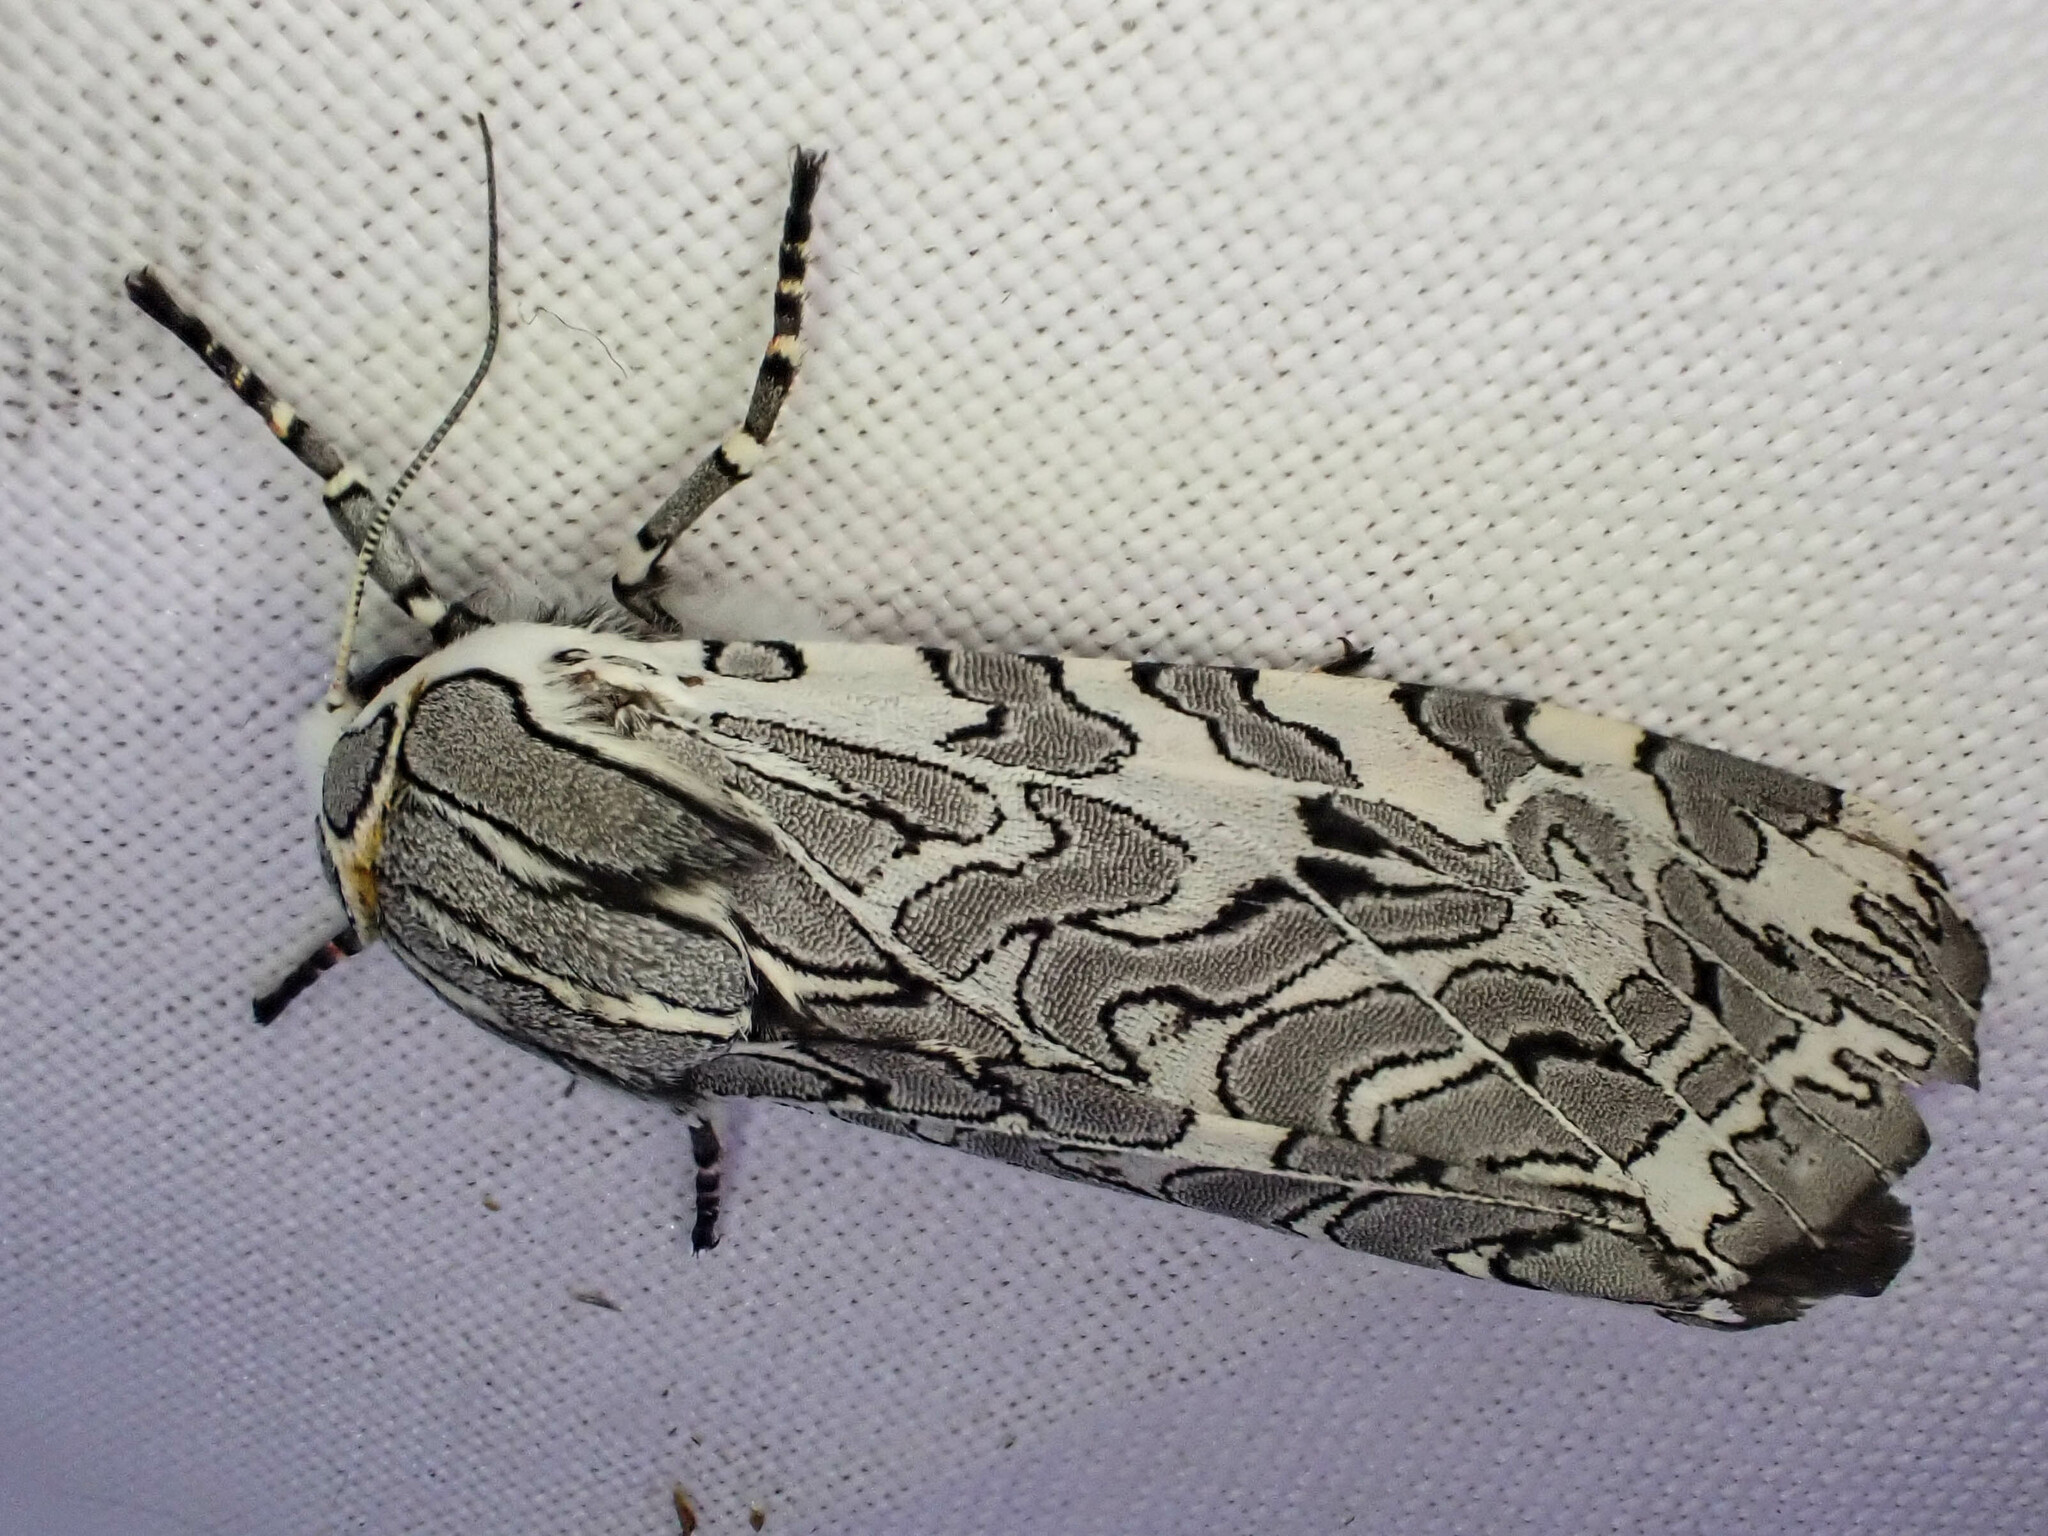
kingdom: Animalia
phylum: Arthropoda
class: Insecta
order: Lepidoptera
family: Erebidae
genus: Arachnis
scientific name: Arachnis picta
